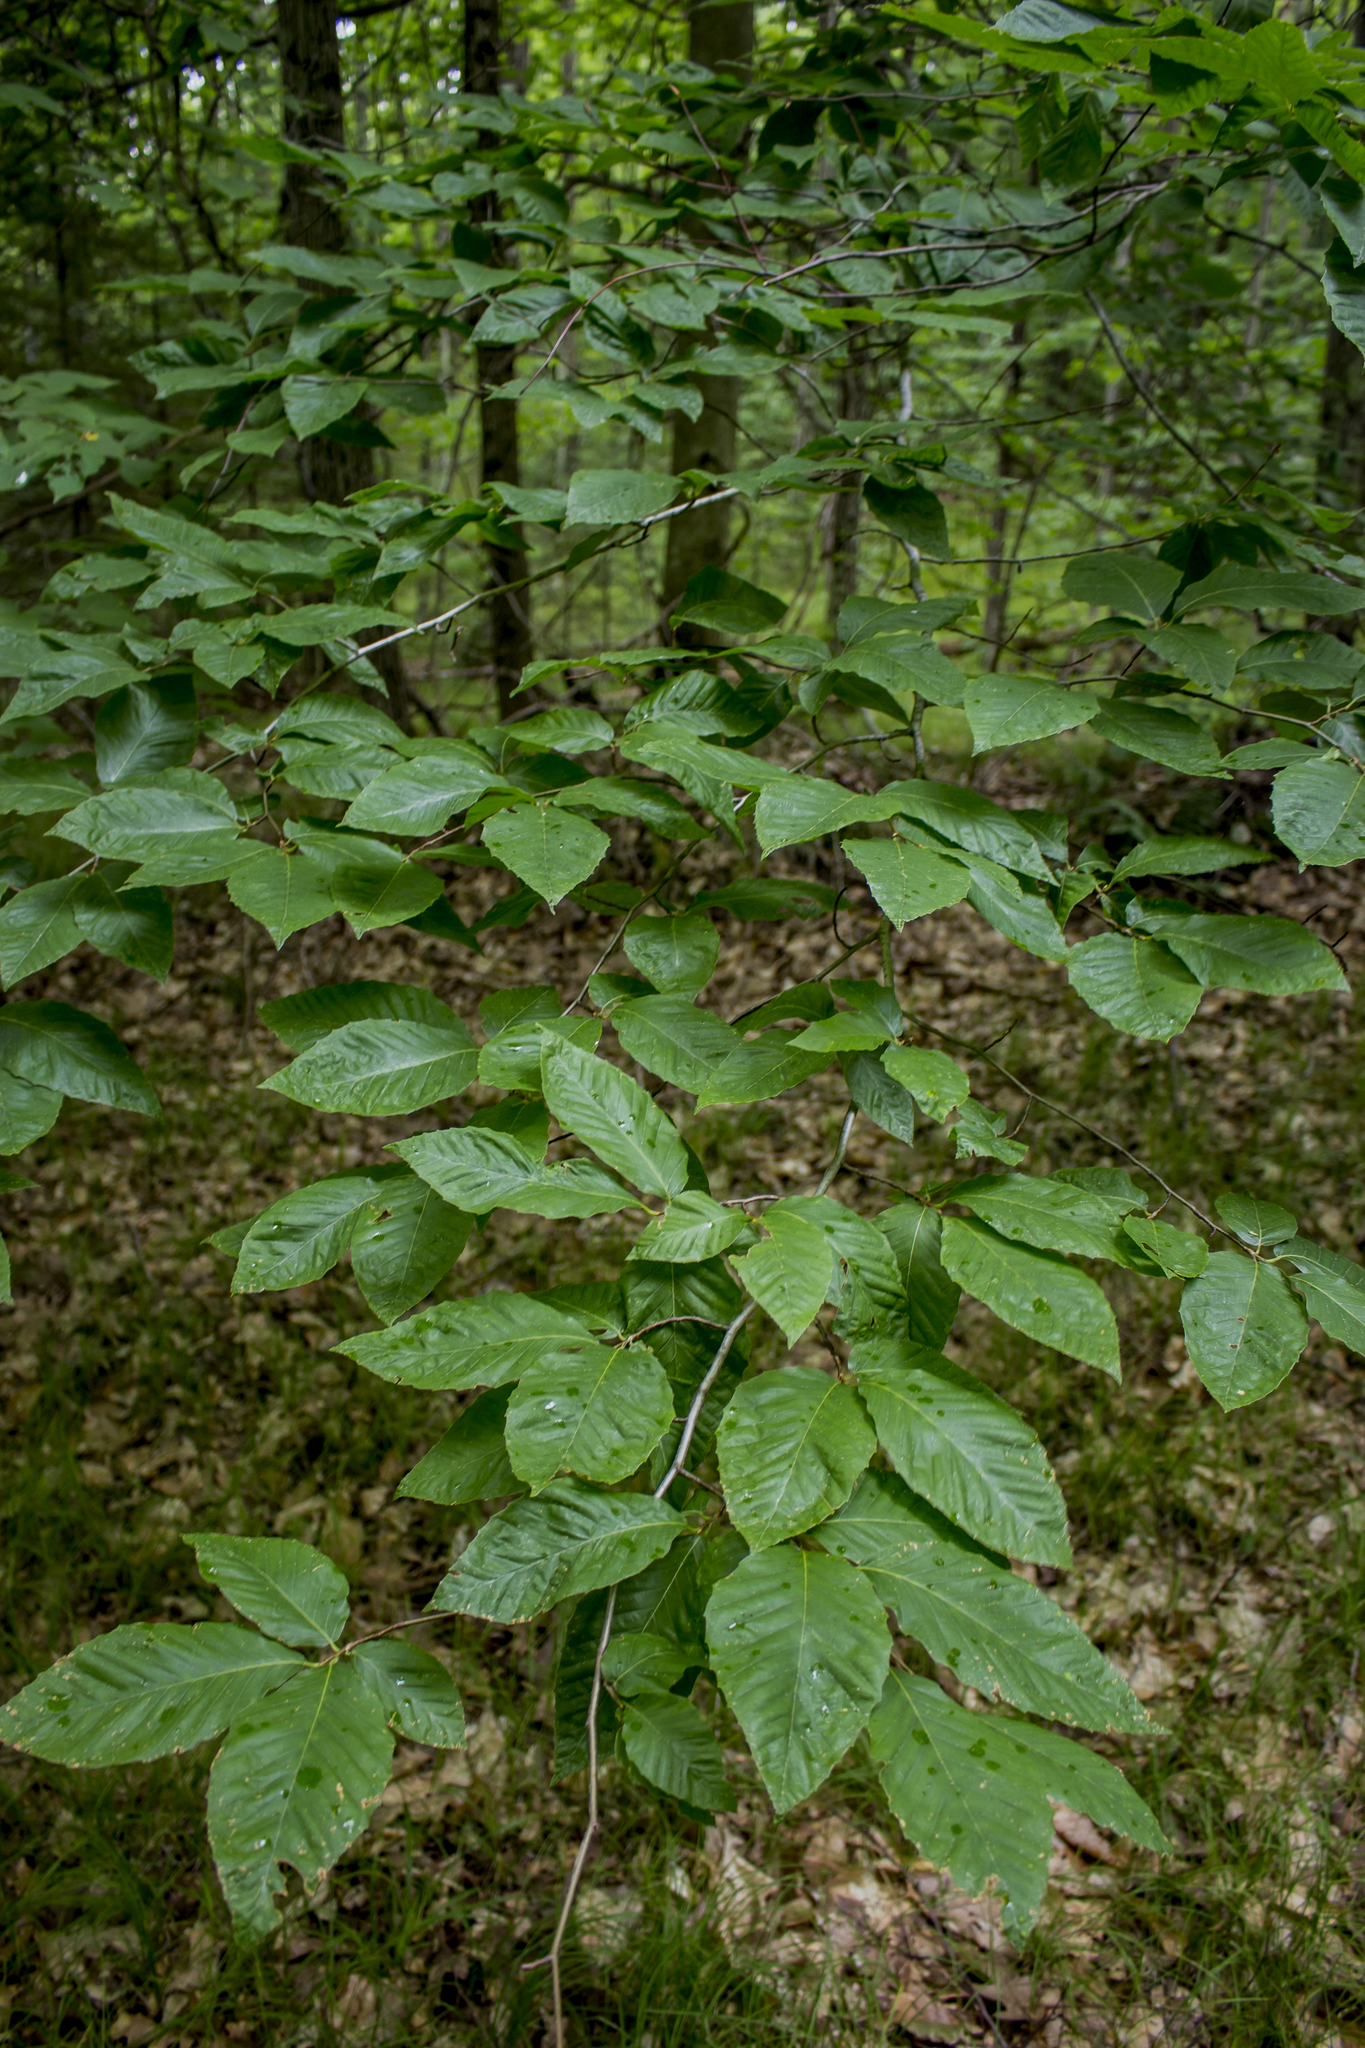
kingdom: Plantae
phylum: Tracheophyta
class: Magnoliopsida
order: Fagales
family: Fagaceae
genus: Fagus
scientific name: Fagus grandifolia
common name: American beech
